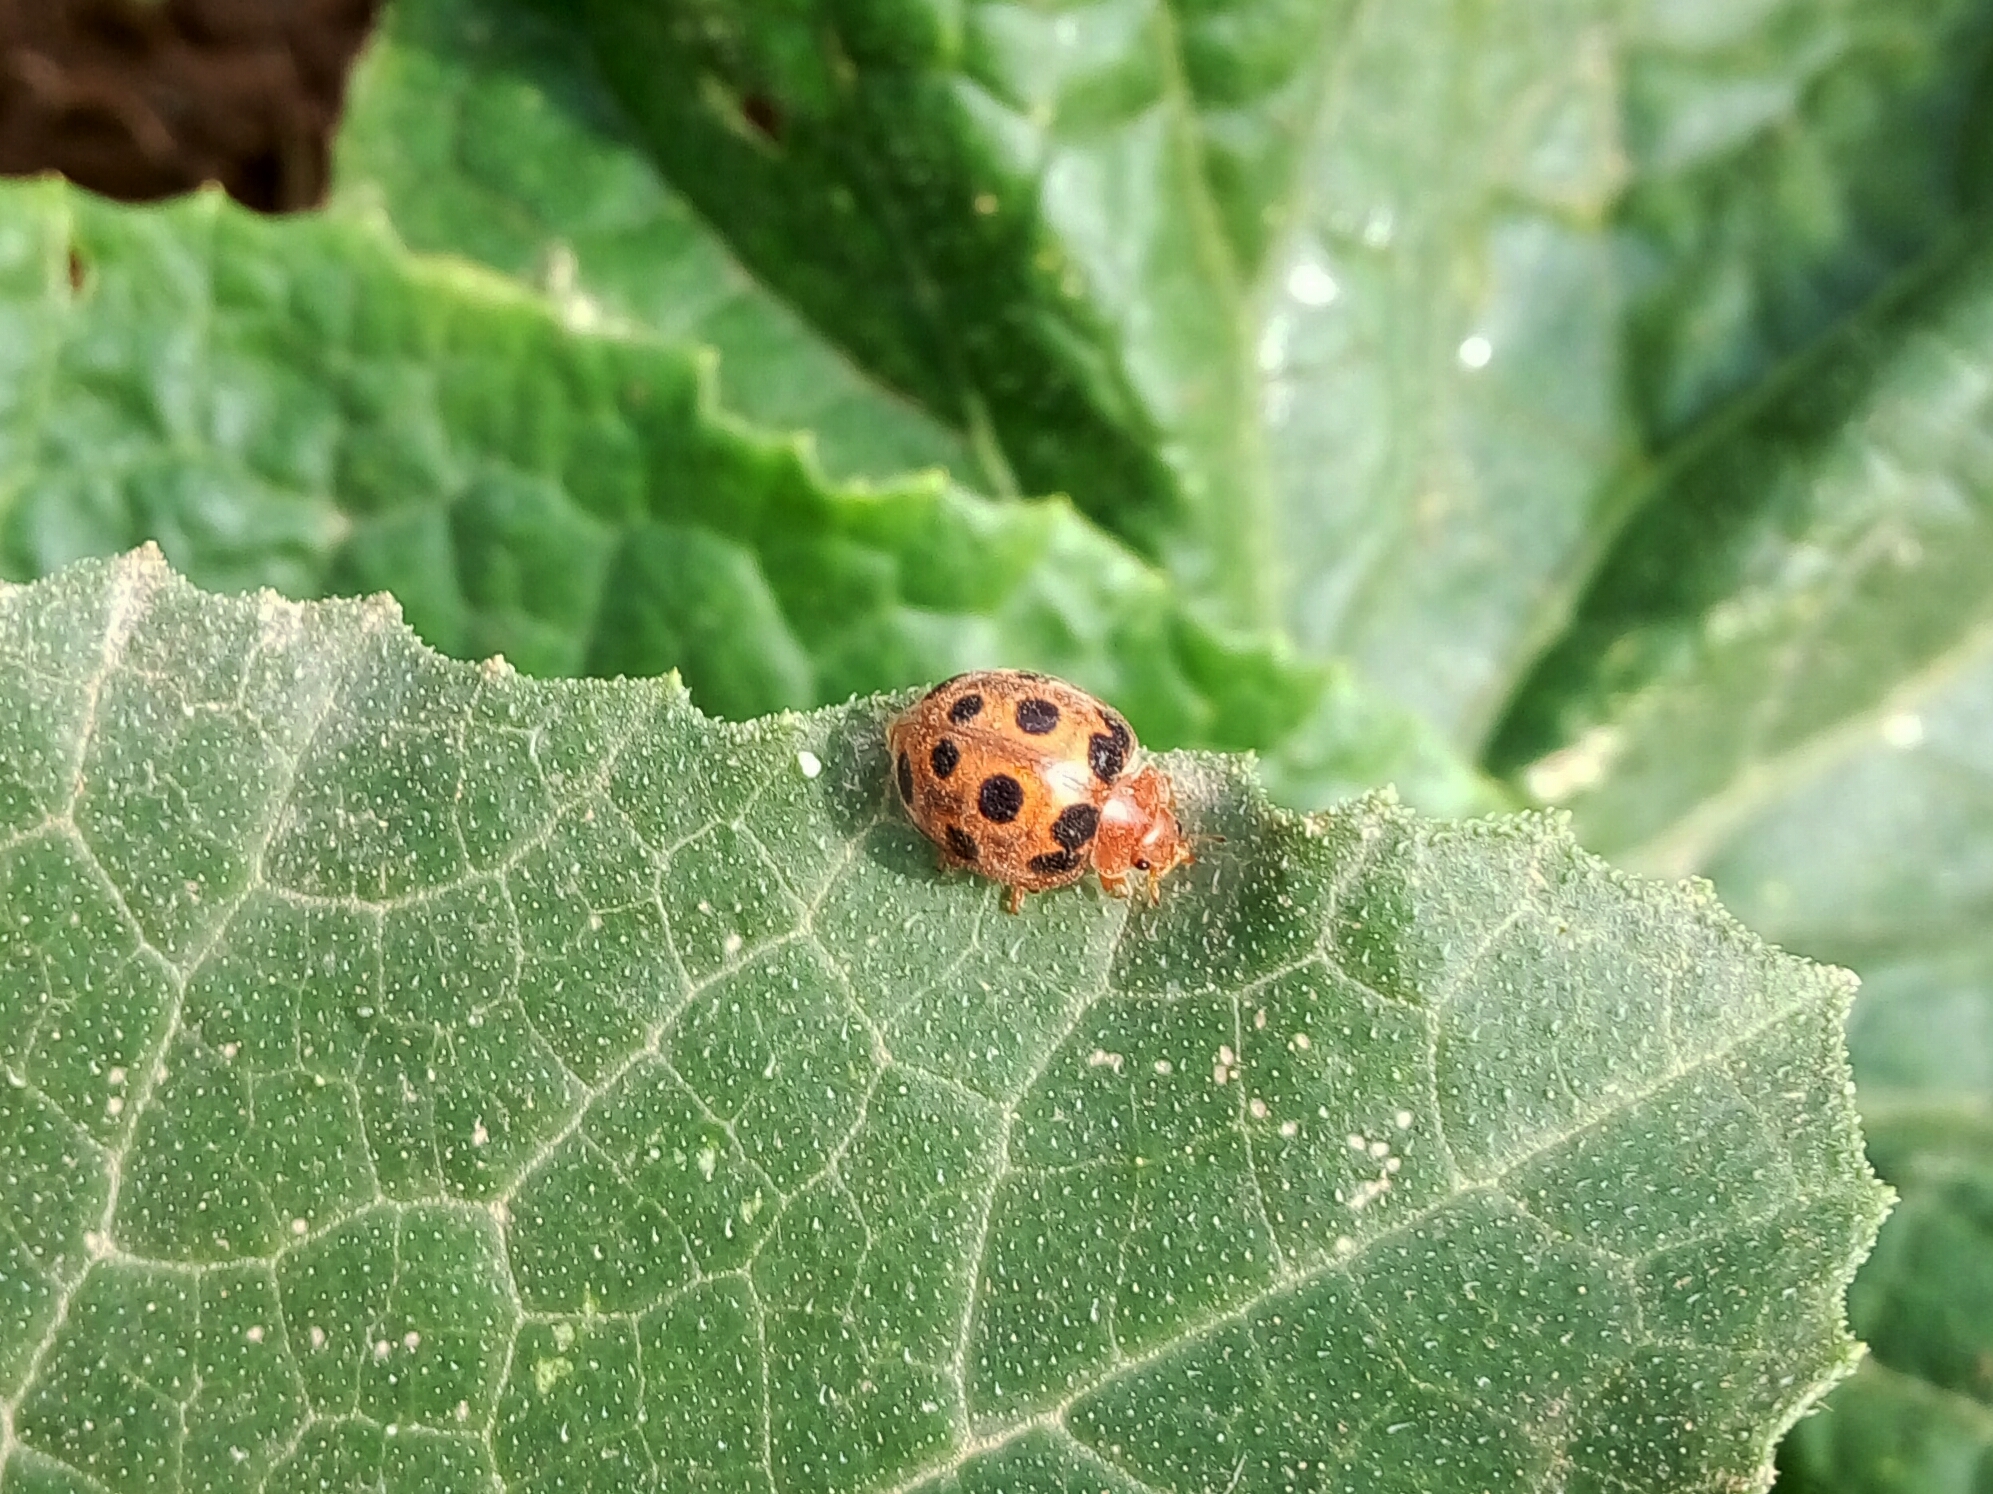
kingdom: Animalia
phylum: Arthropoda
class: Insecta
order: Coleoptera
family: Coccinellidae
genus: Chnootriba
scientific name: Chnootriba elaterii
